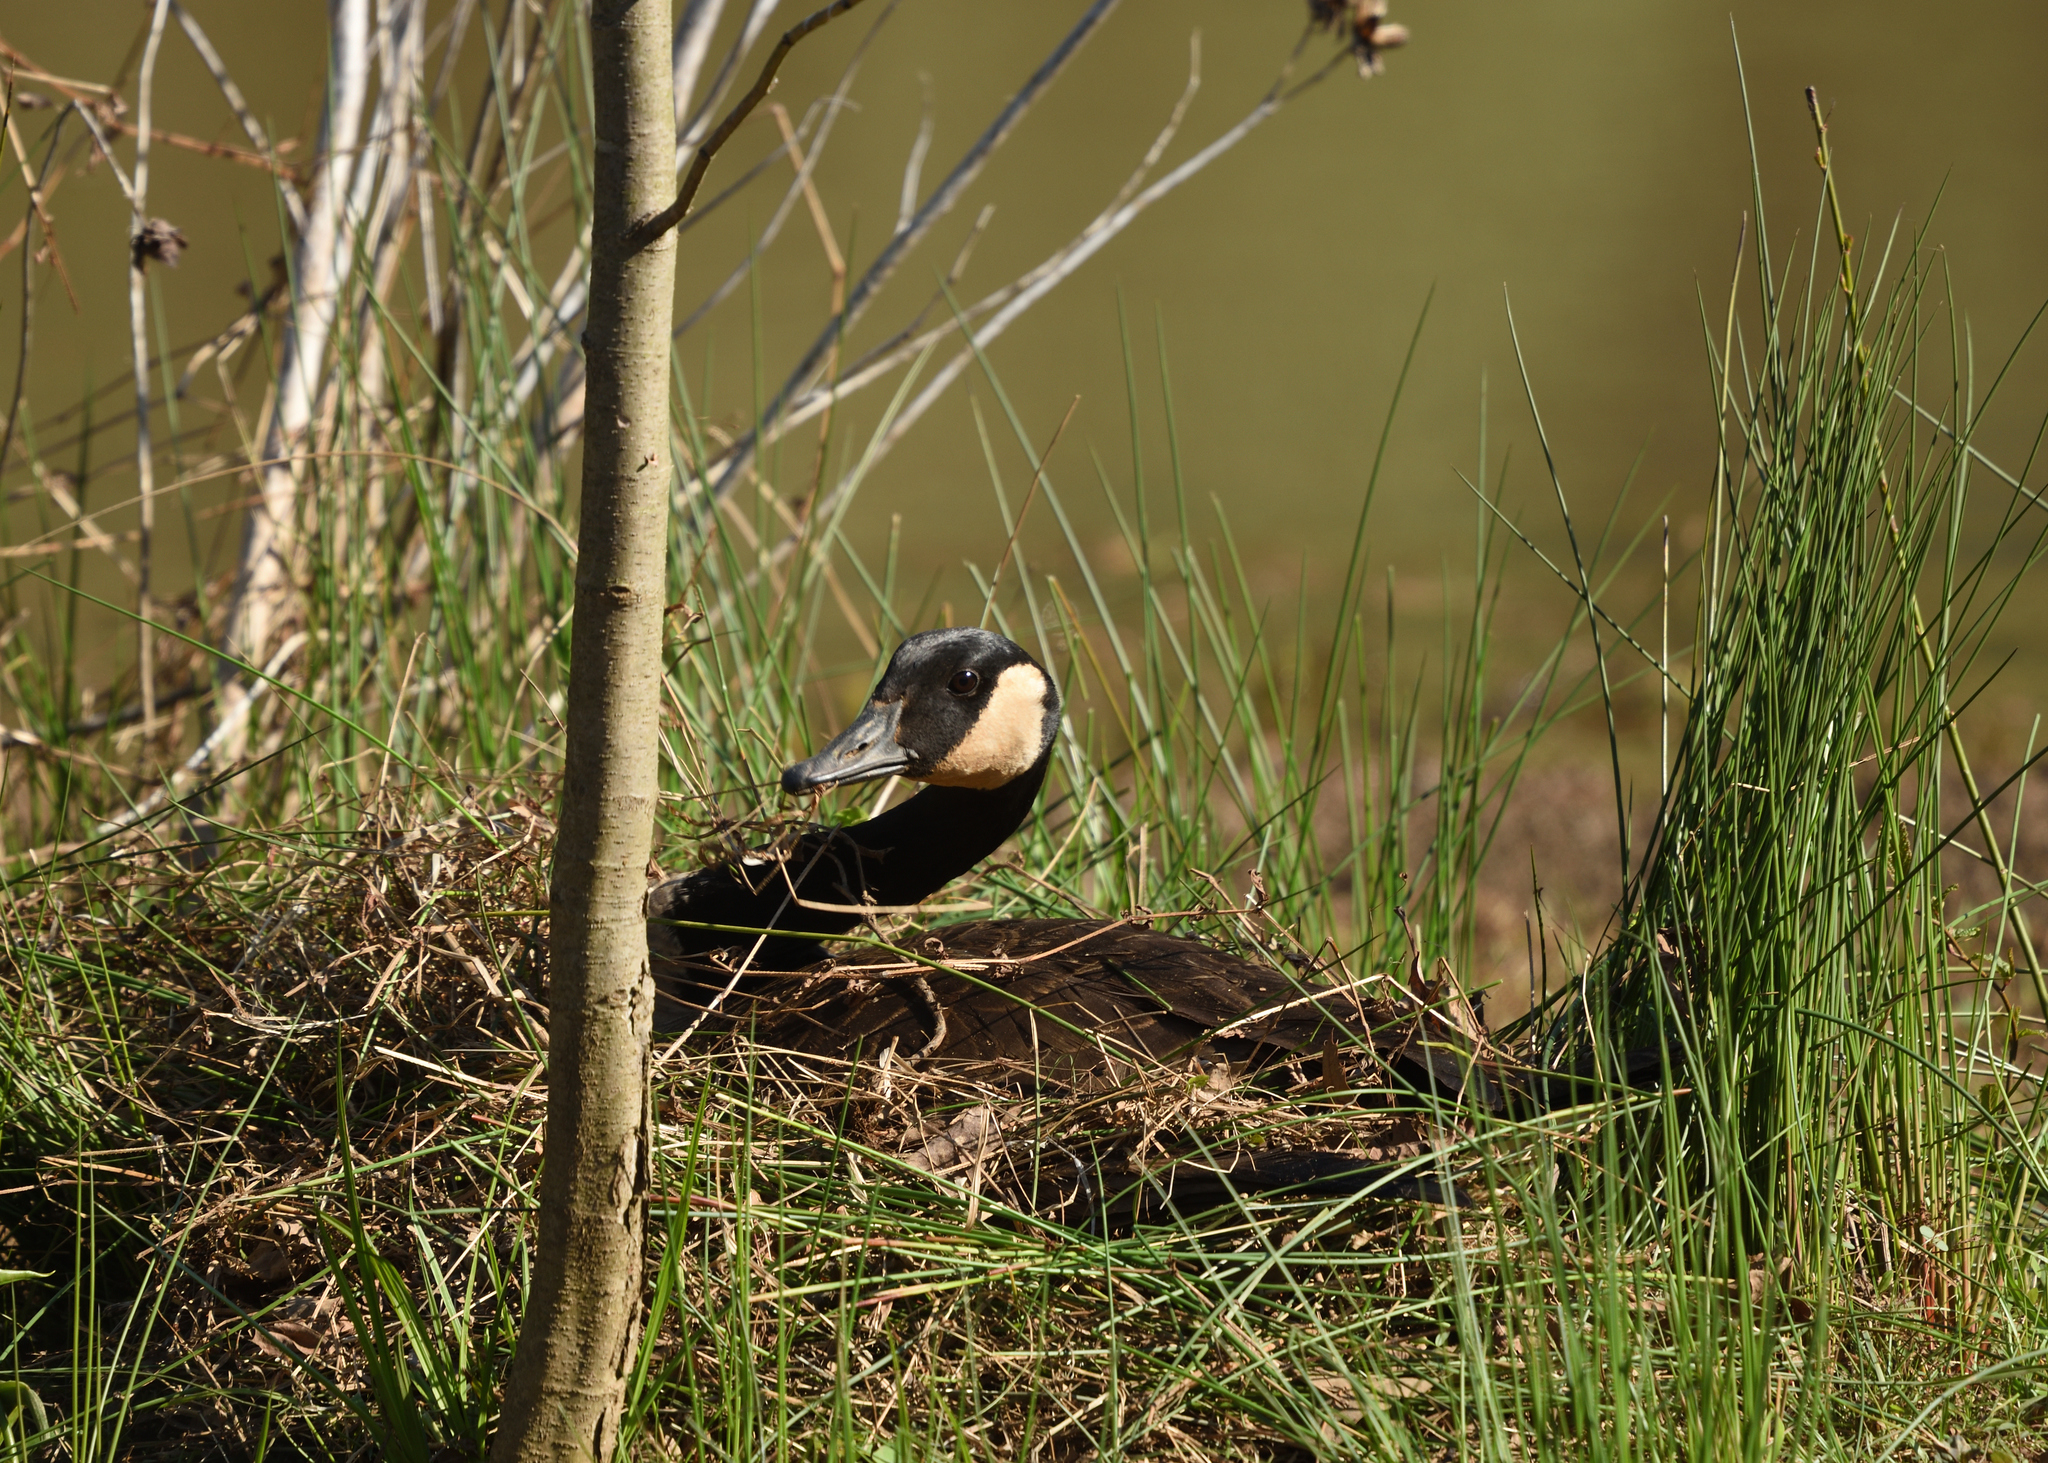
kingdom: Animalia
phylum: Chordata
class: Aves
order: Anseriformes
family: Anatidae
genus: Branta
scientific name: Branta canadensis
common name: Canada goose
